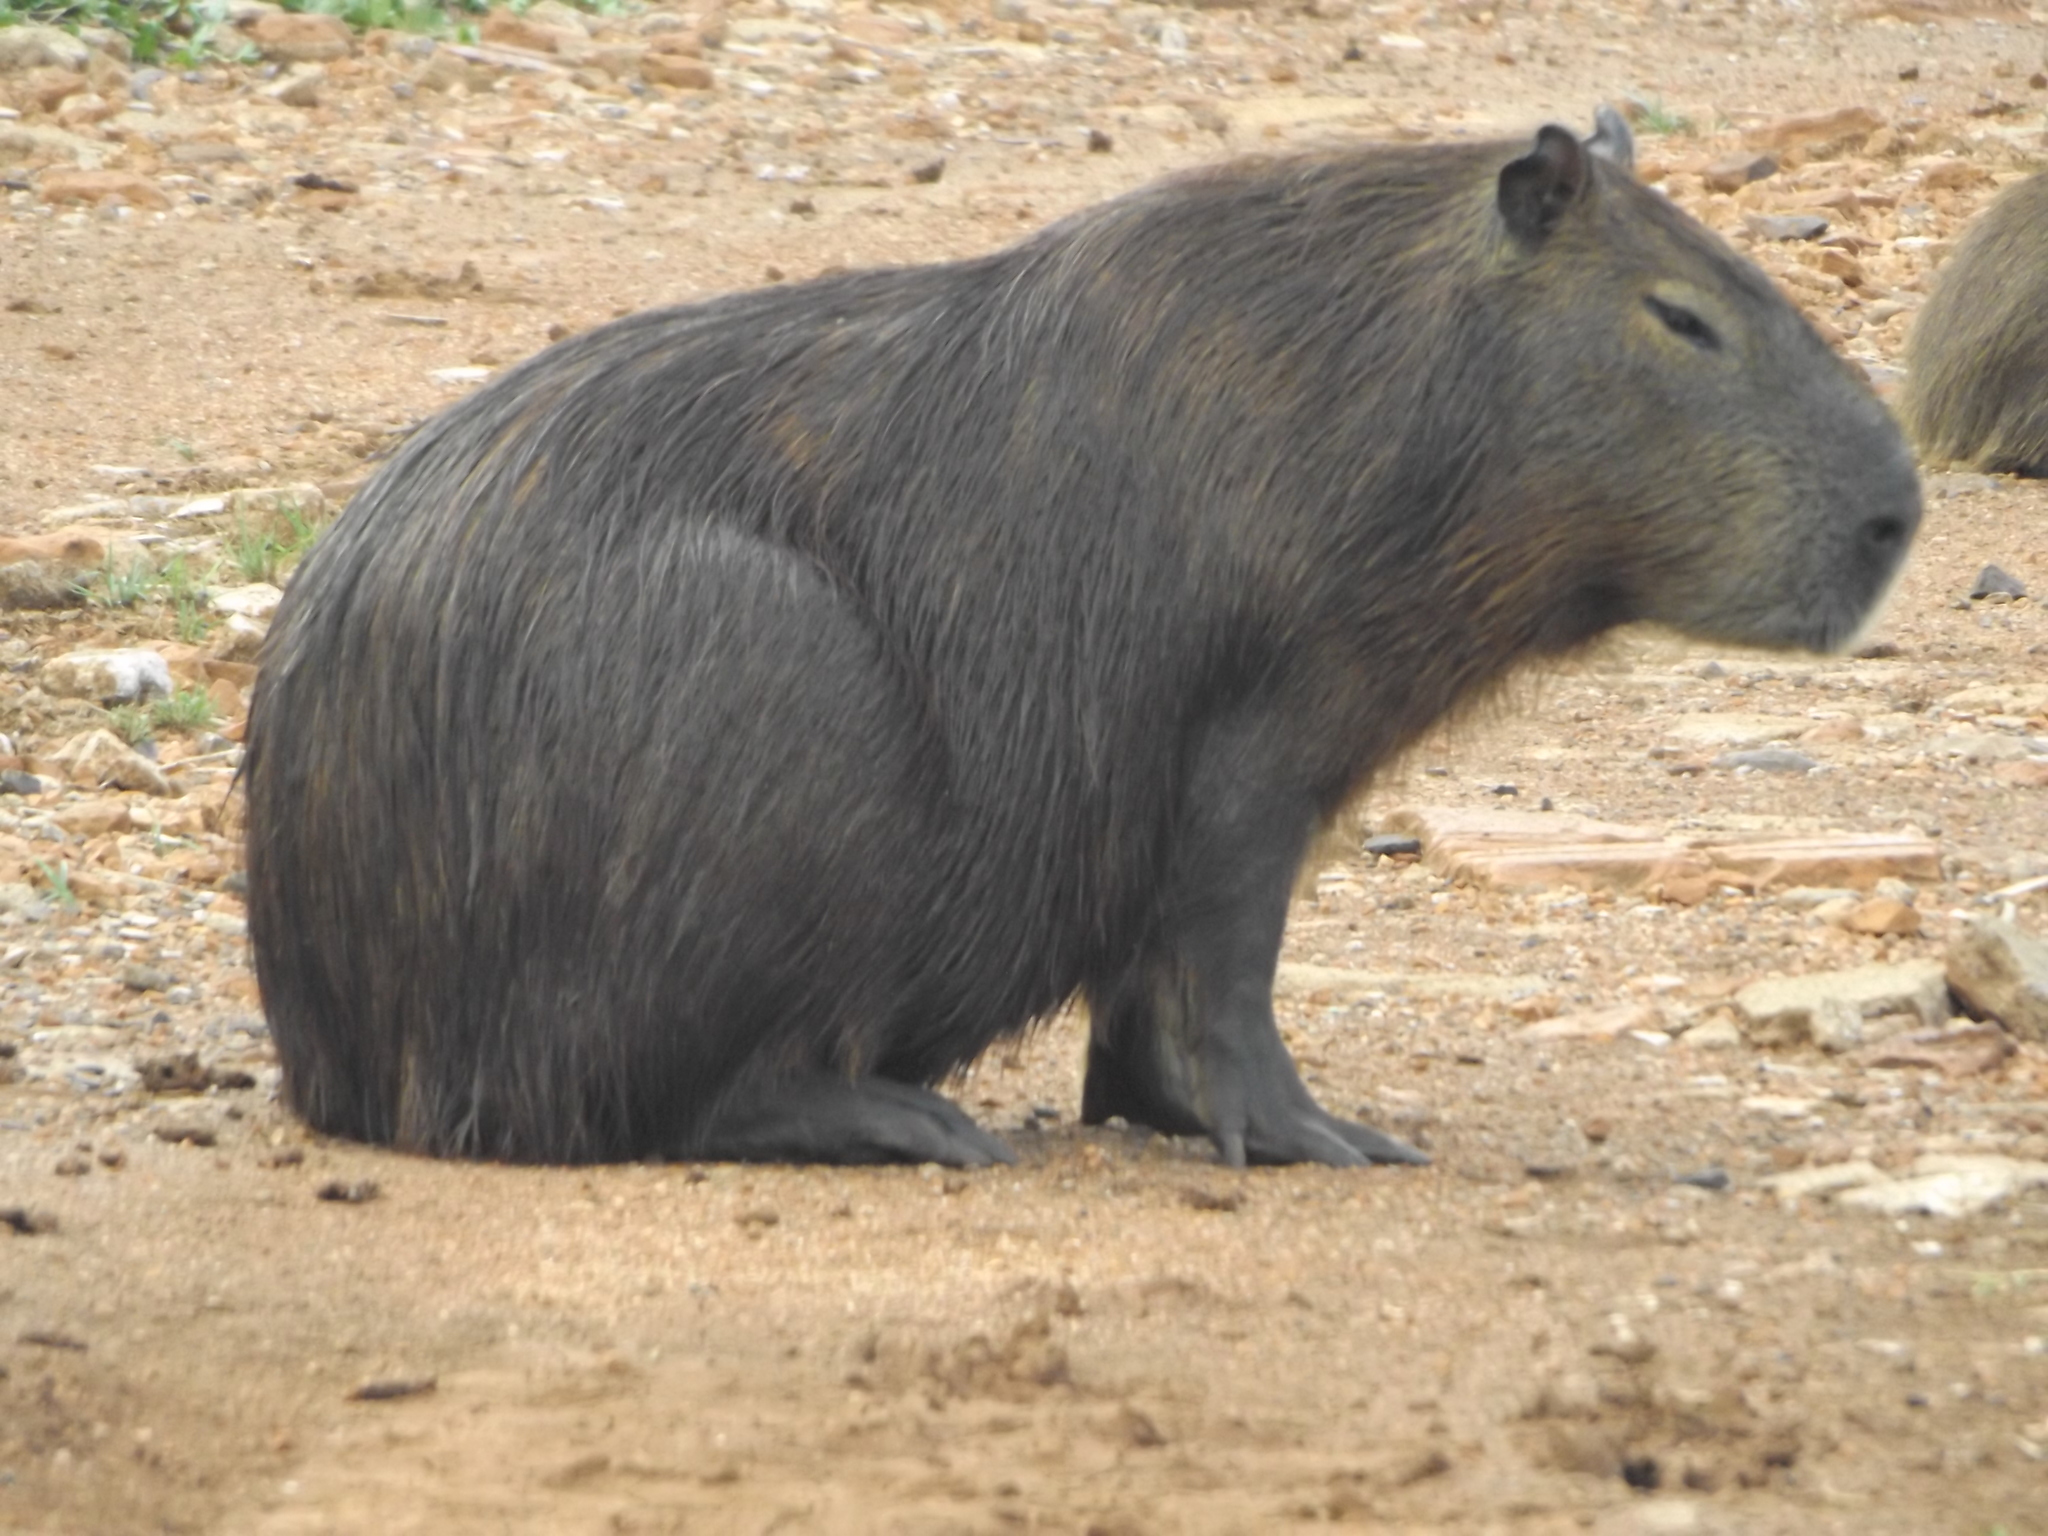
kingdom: Animalia
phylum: Chordata
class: Mammalia
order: Rodentia
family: Caviidae
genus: Hydrochoerus
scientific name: Hydrochoerus hydrochaeris
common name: Capybara
